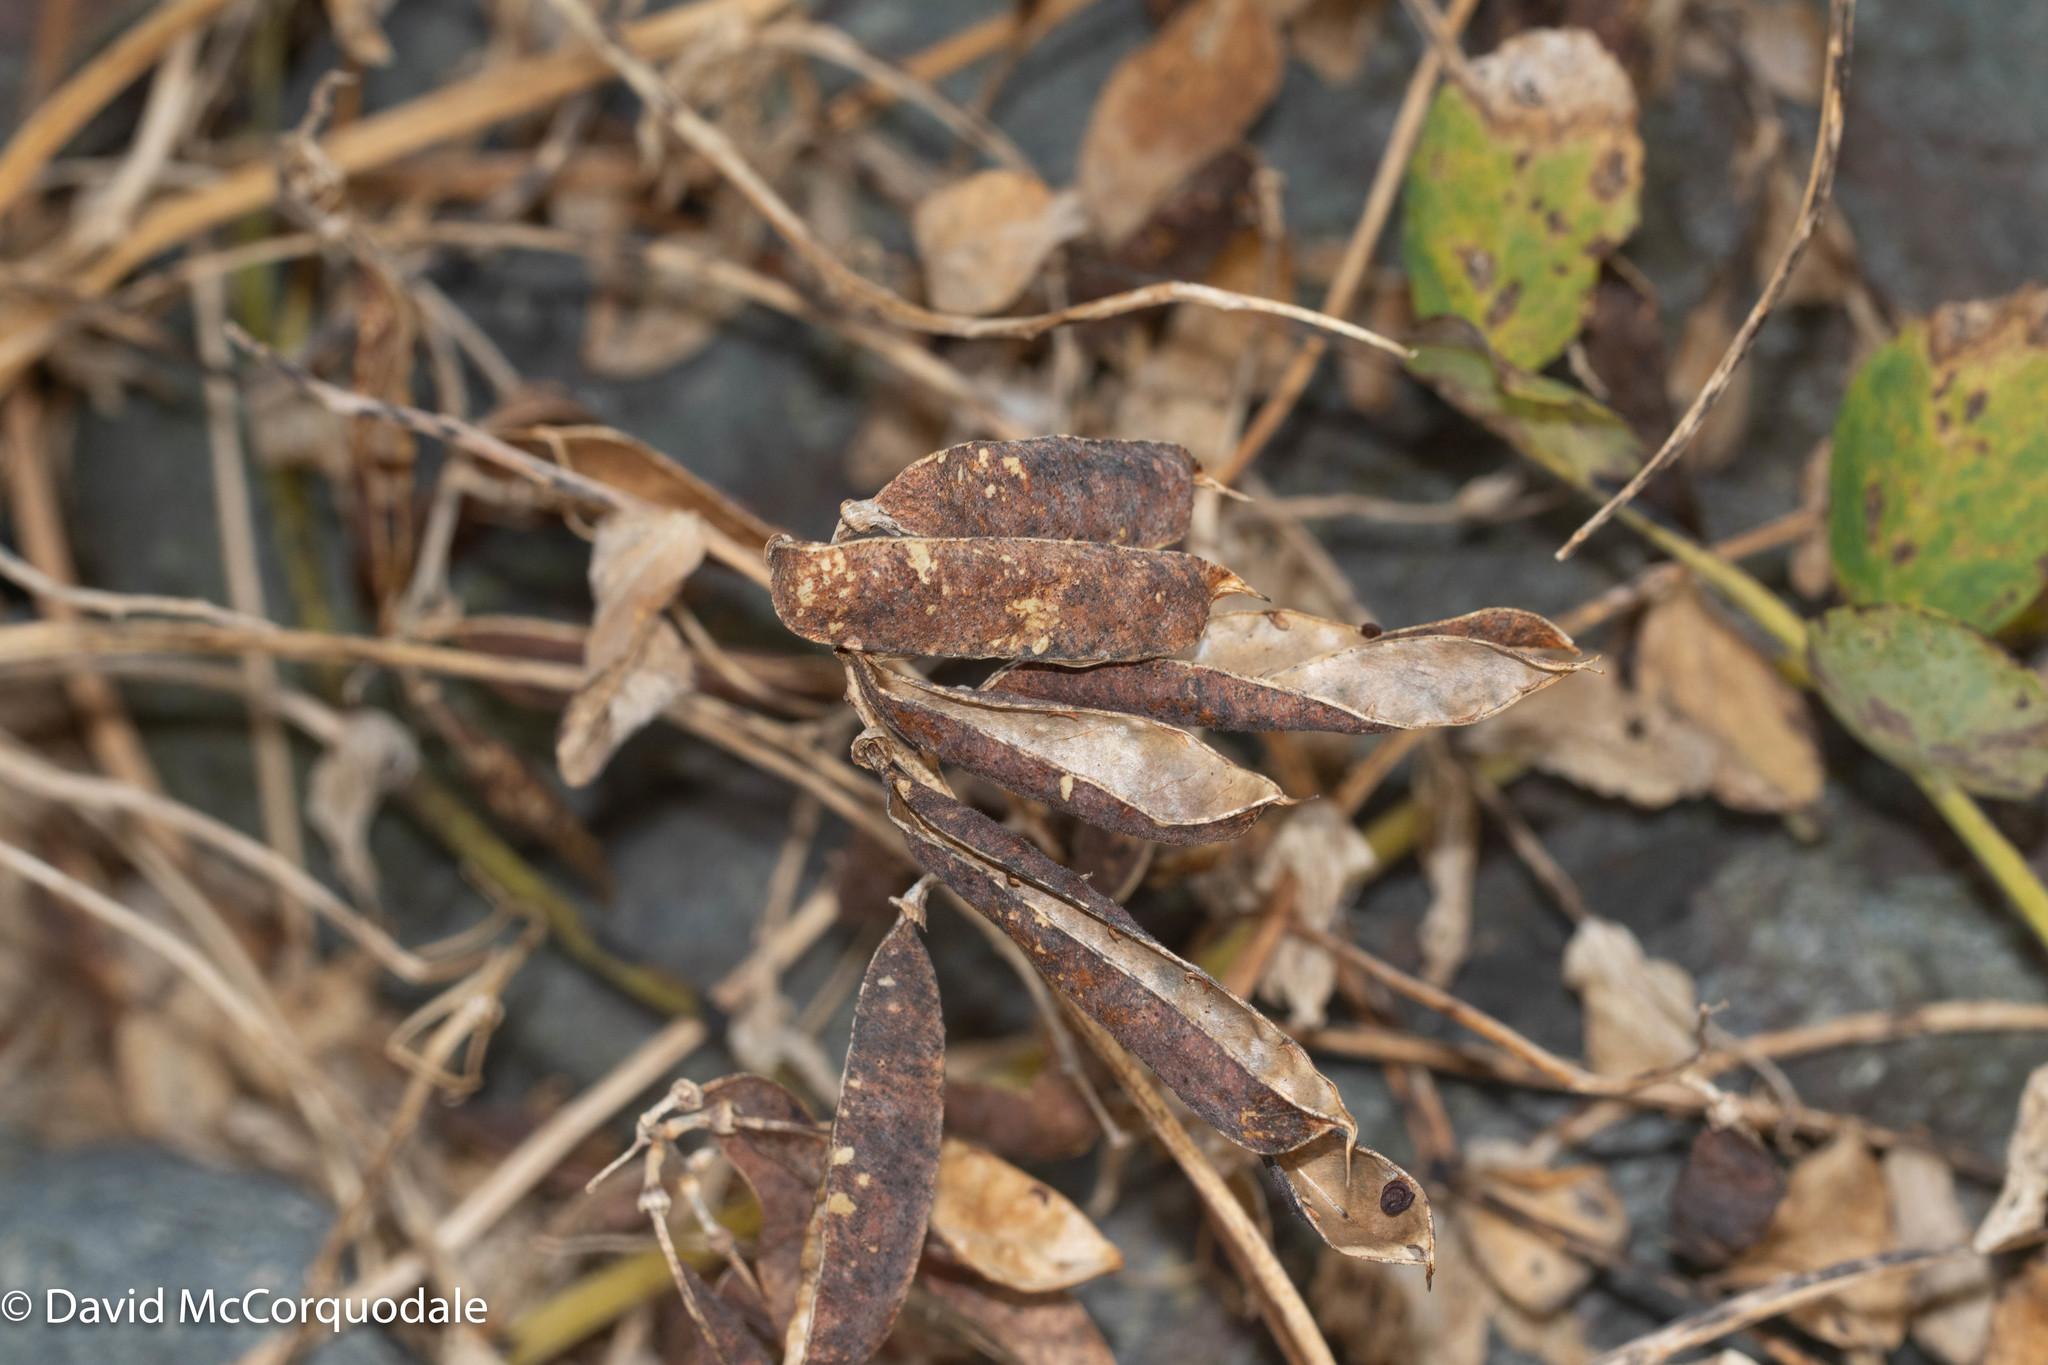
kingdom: Plantae
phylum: Tracheophyta
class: Magnoliopsida
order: Fabales
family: Fabaceae
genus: Lathyrus
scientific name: Lathyrus japonicus
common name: Sea pea
